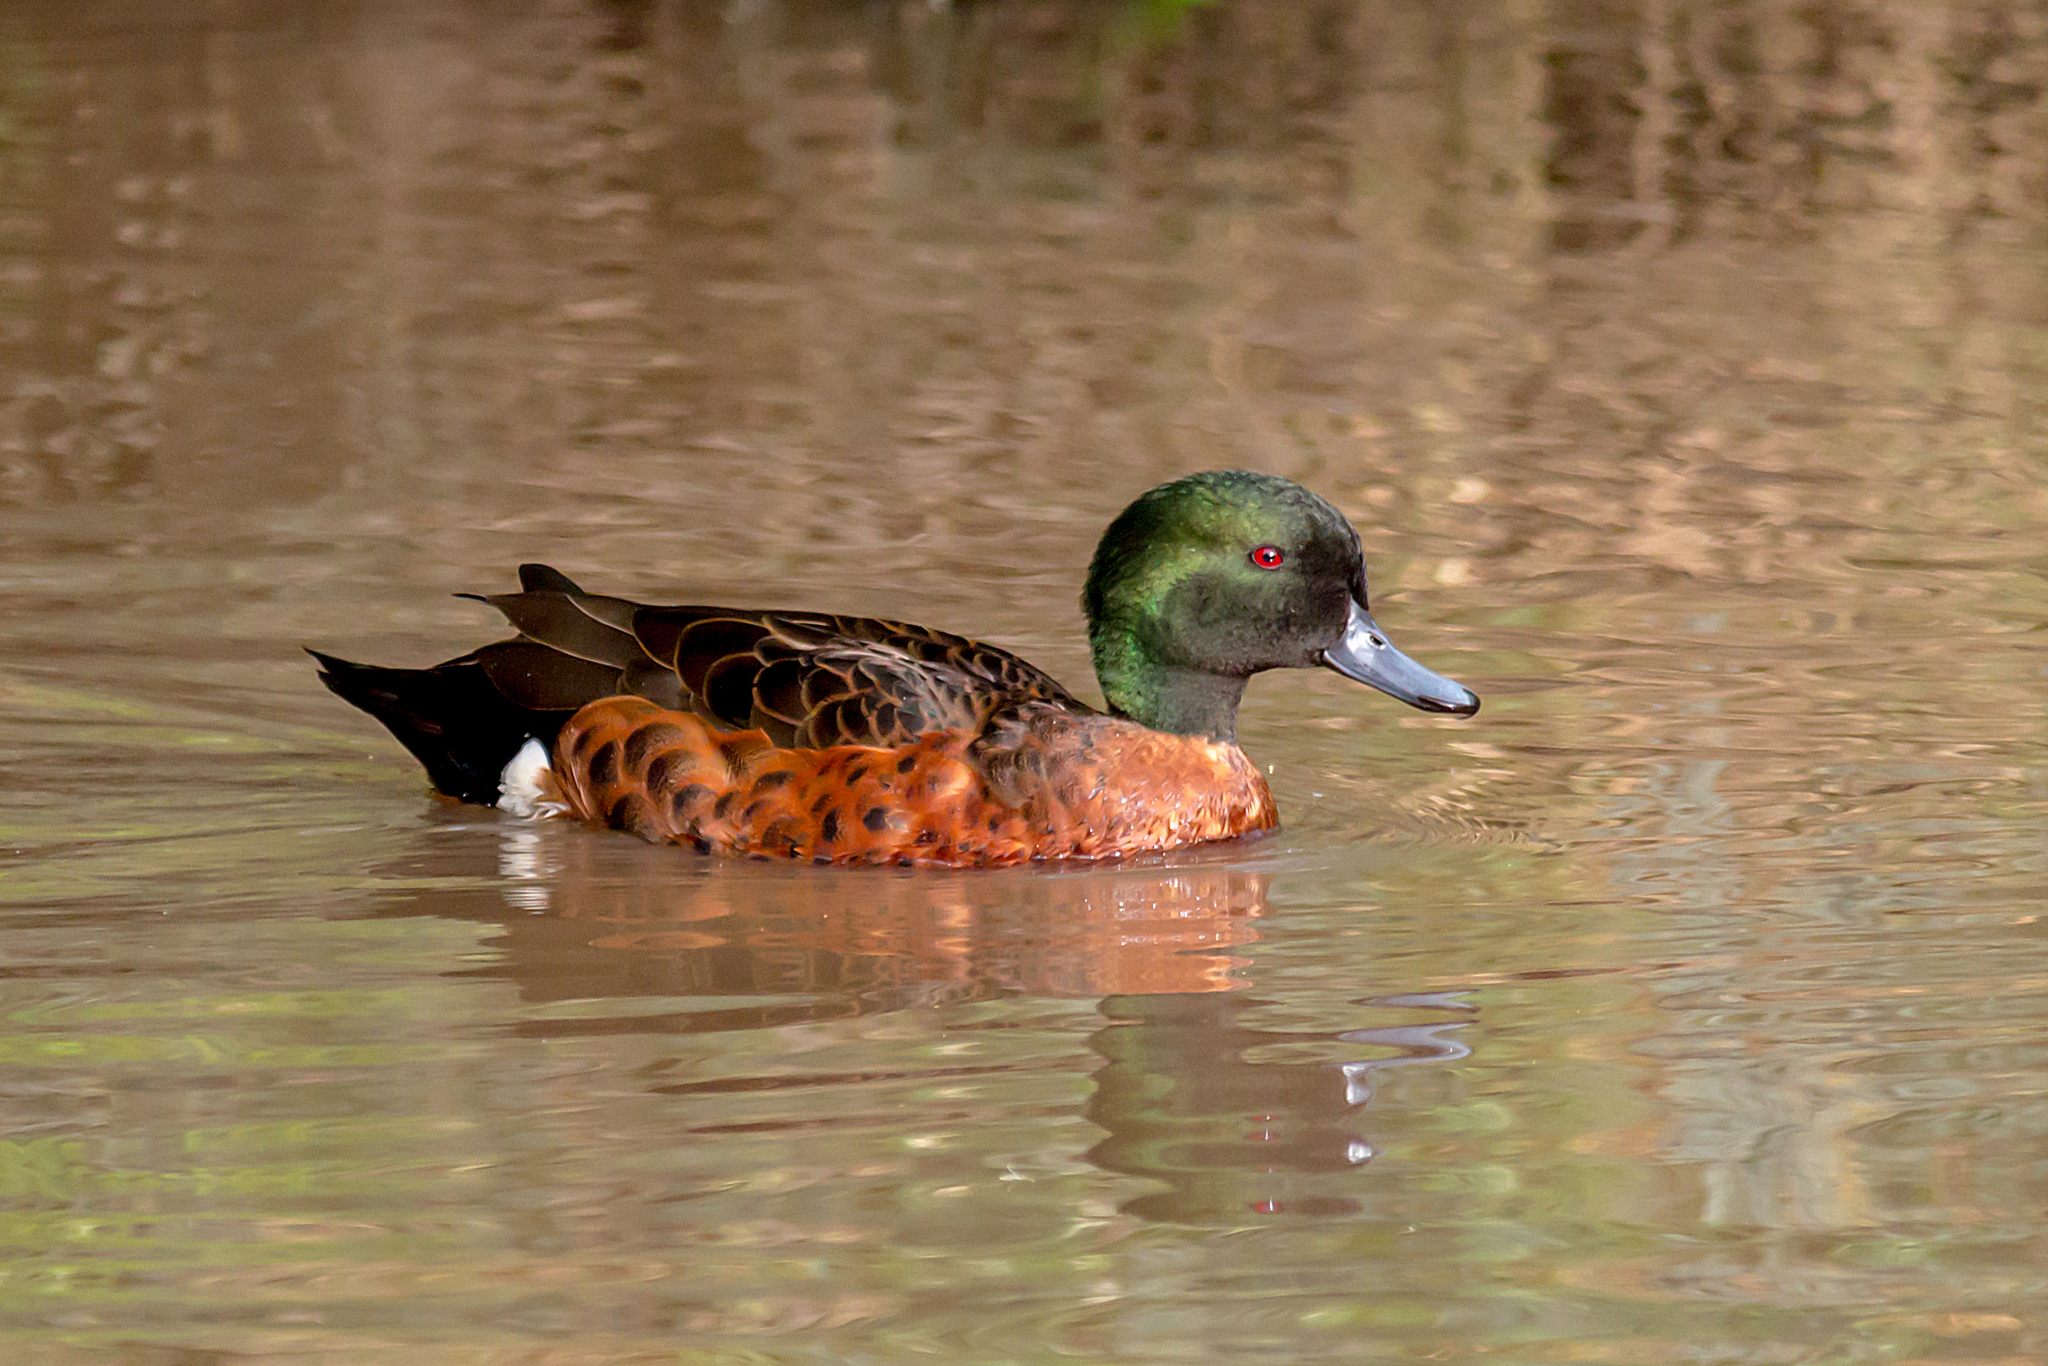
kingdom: Animalia
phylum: Chordata
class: Aves
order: Anseriformes
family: Anatidae
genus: Anas
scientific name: Anas castanea
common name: Chestnut teal
